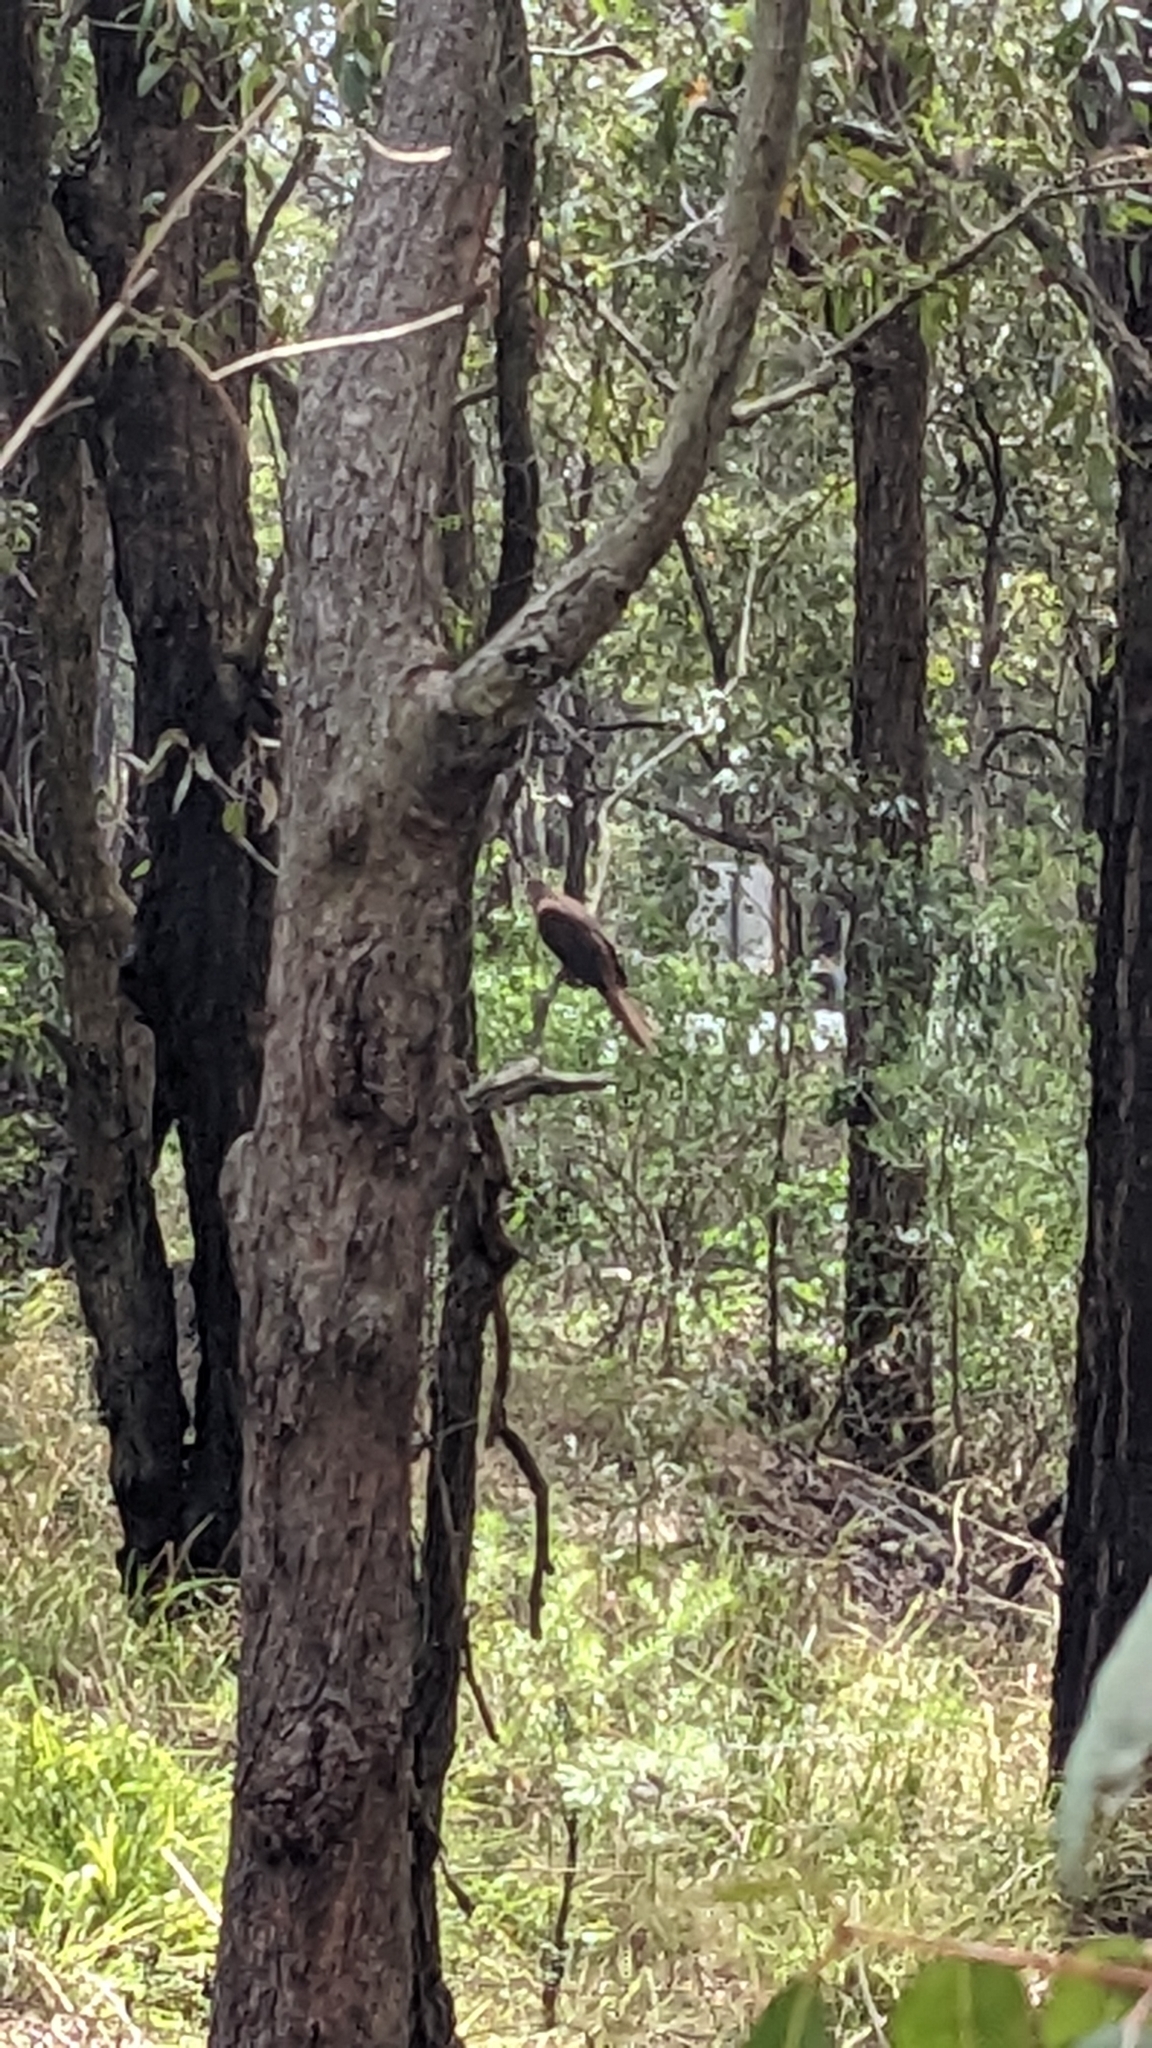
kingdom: Animalia
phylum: Chordata
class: Aves
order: Columbiformes
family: Columbidae
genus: Macropygia
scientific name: Macropygia phasianella
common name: Brown cuckoo-dove
